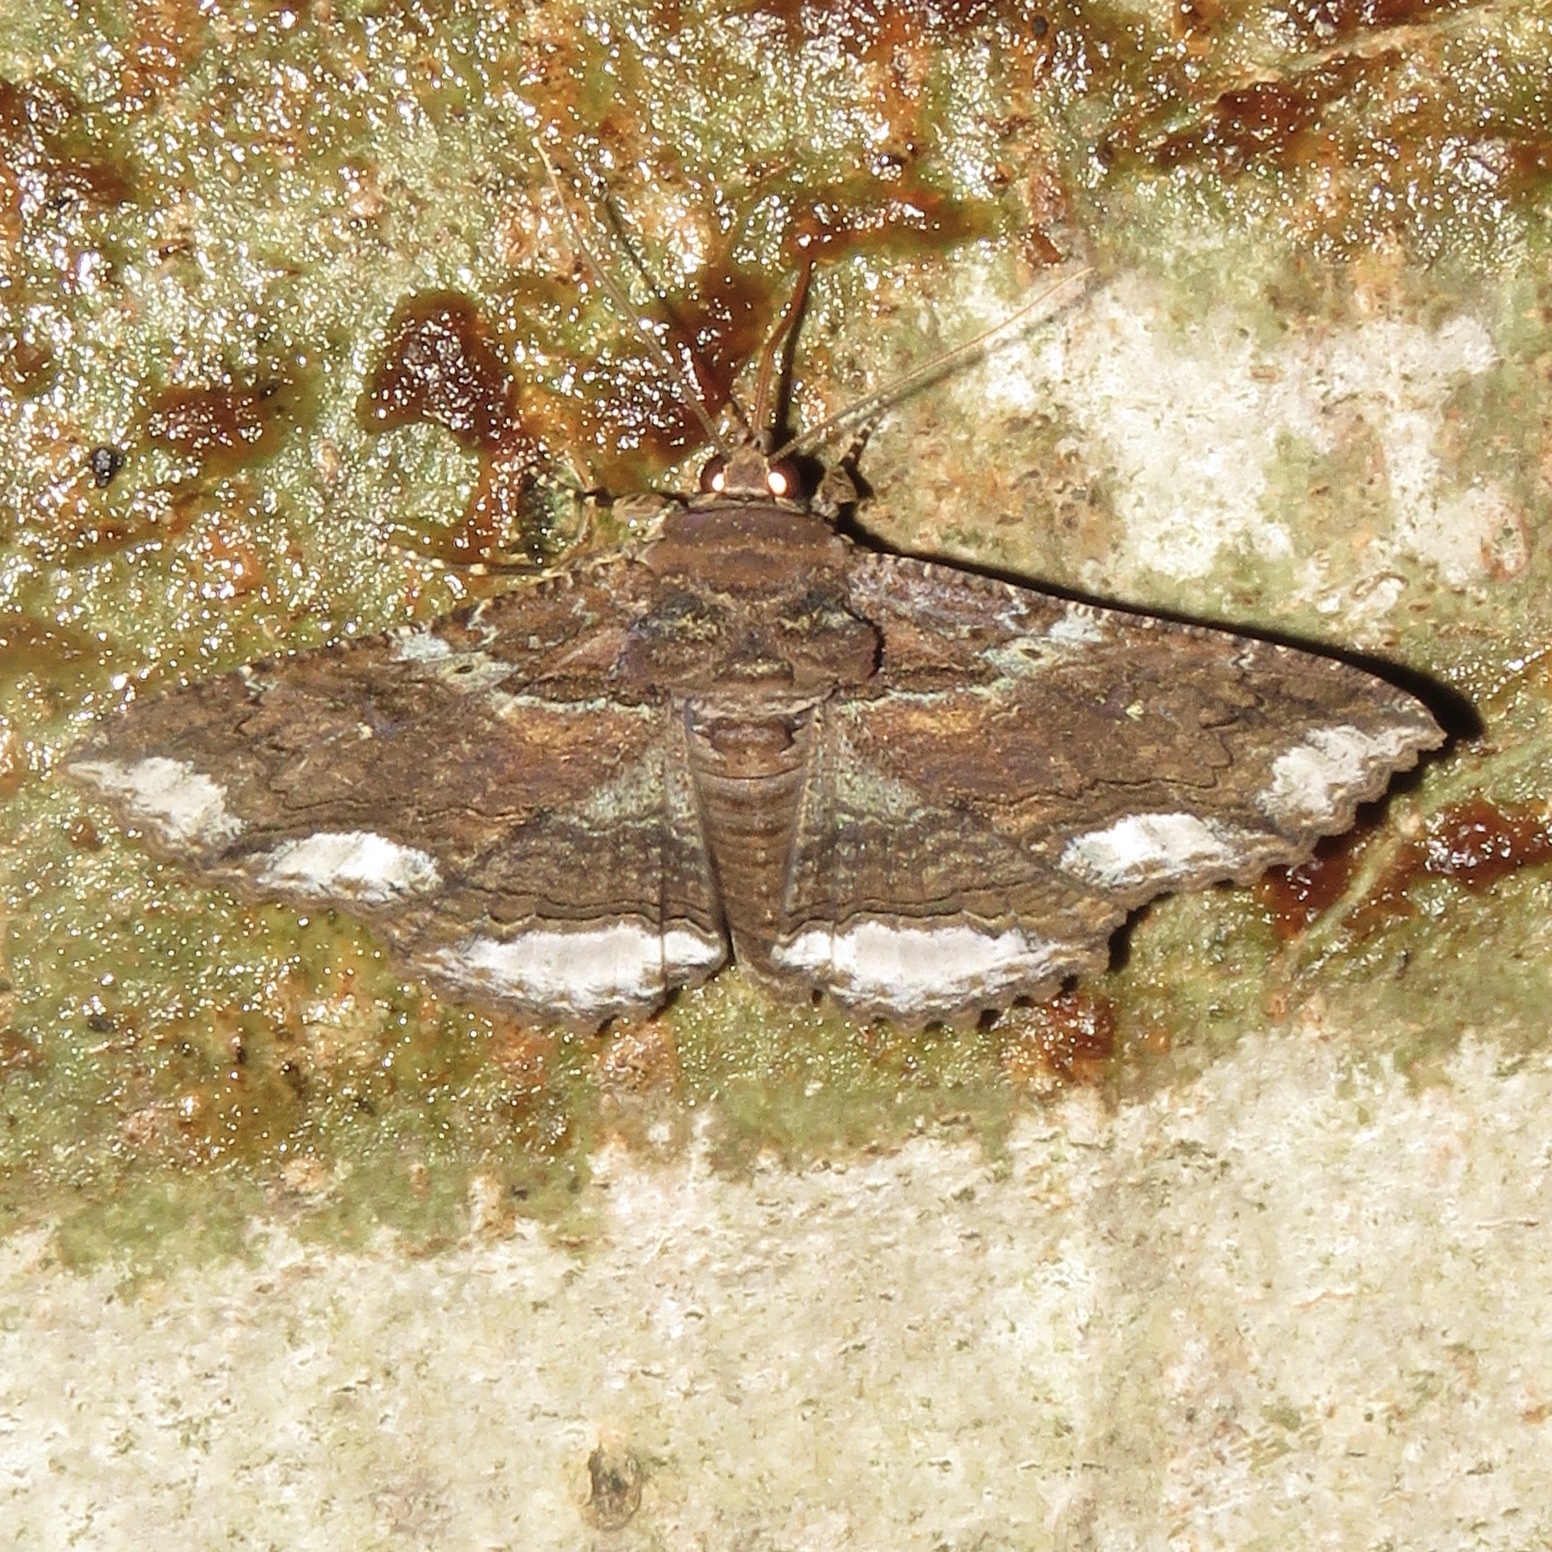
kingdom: Animalia
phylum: Arthropoda
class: Insecta
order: Lepidoptera
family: Erebidae
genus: Zale
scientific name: Zale lunata
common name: Lunate zale moth
